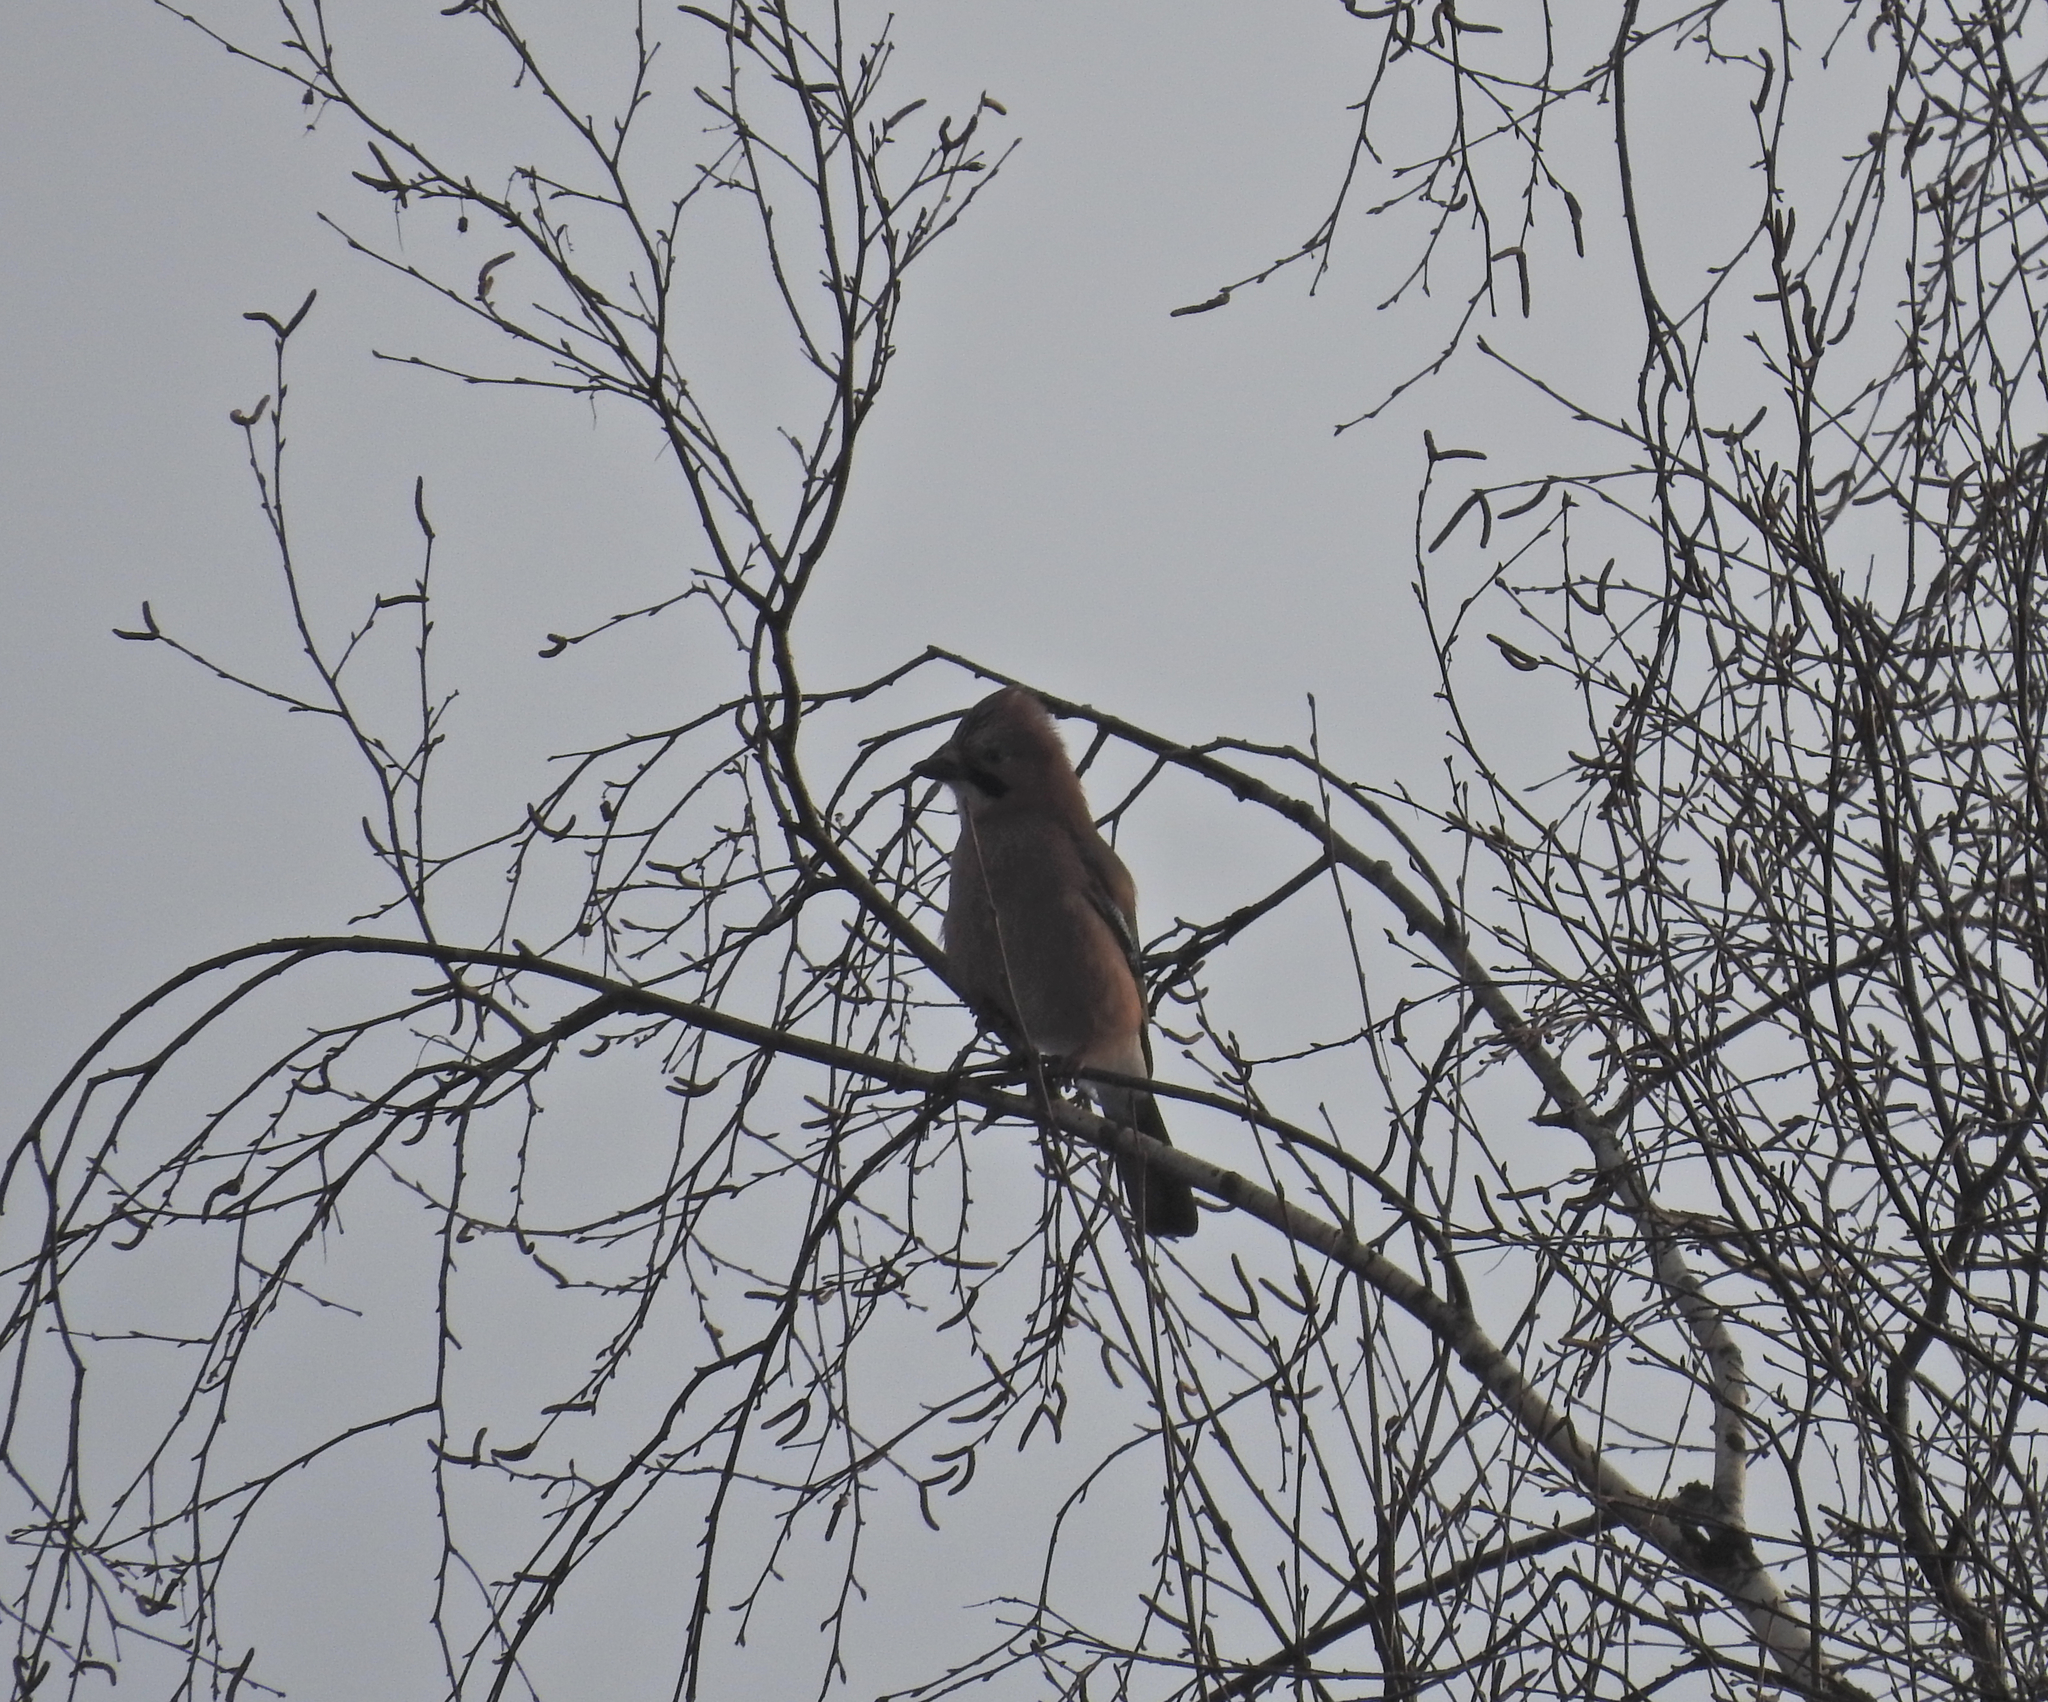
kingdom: Animalia
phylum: Chordata
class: Aves
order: Passeriformes
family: Corvidae
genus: Garrulus
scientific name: Garrulus glandarius
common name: Eurasian jay
